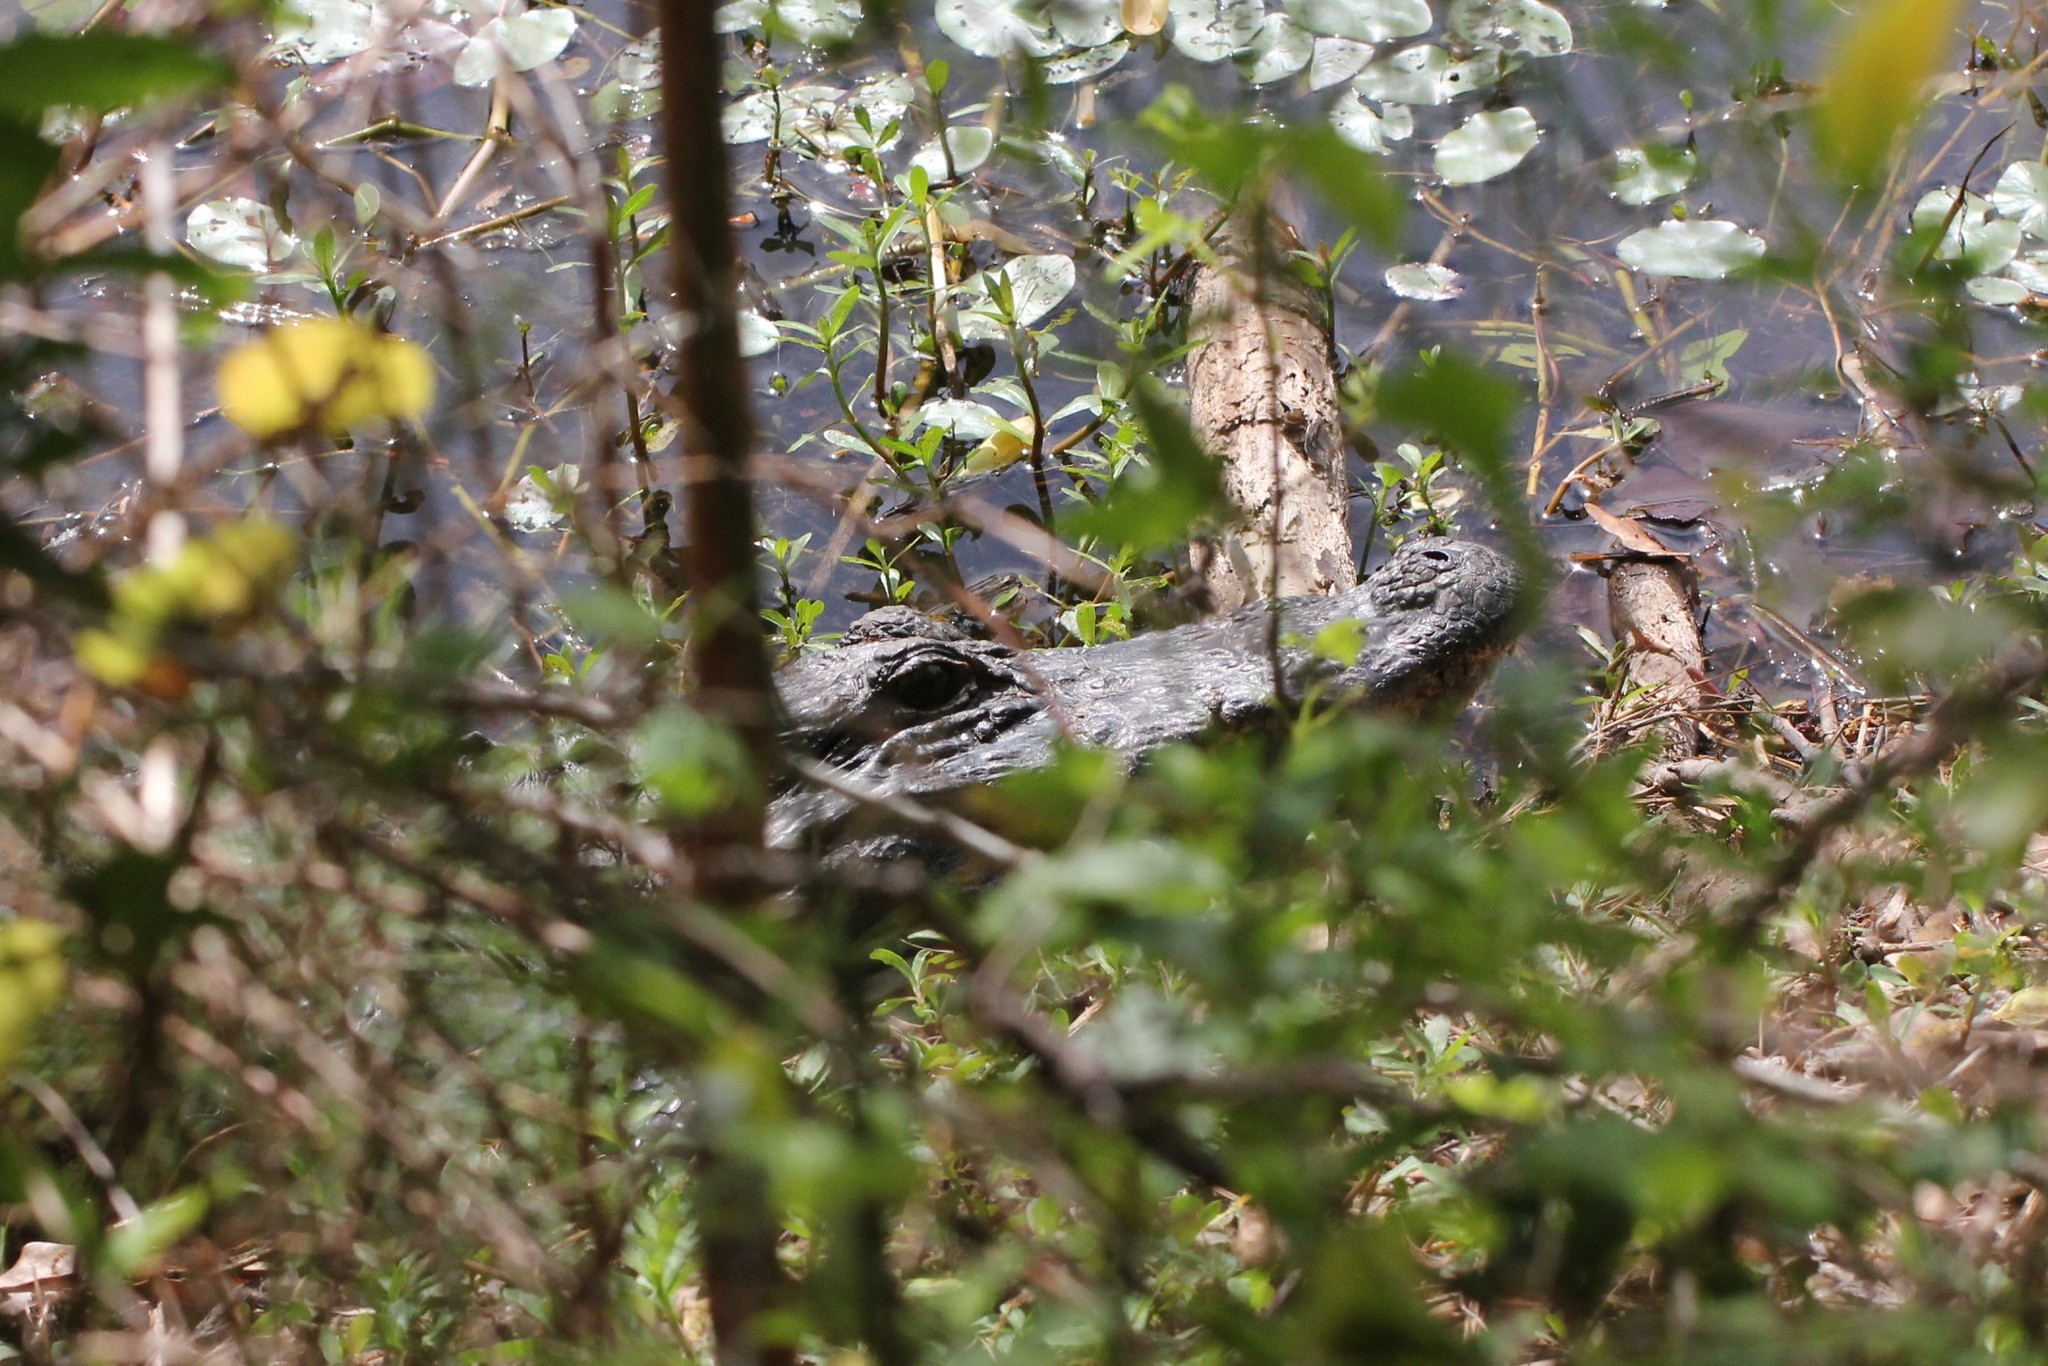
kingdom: Animalia
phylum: Chordata
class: Crocodylia
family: Alligatoridae
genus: Alligator
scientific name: Alligator mississippiensis
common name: American alligator
